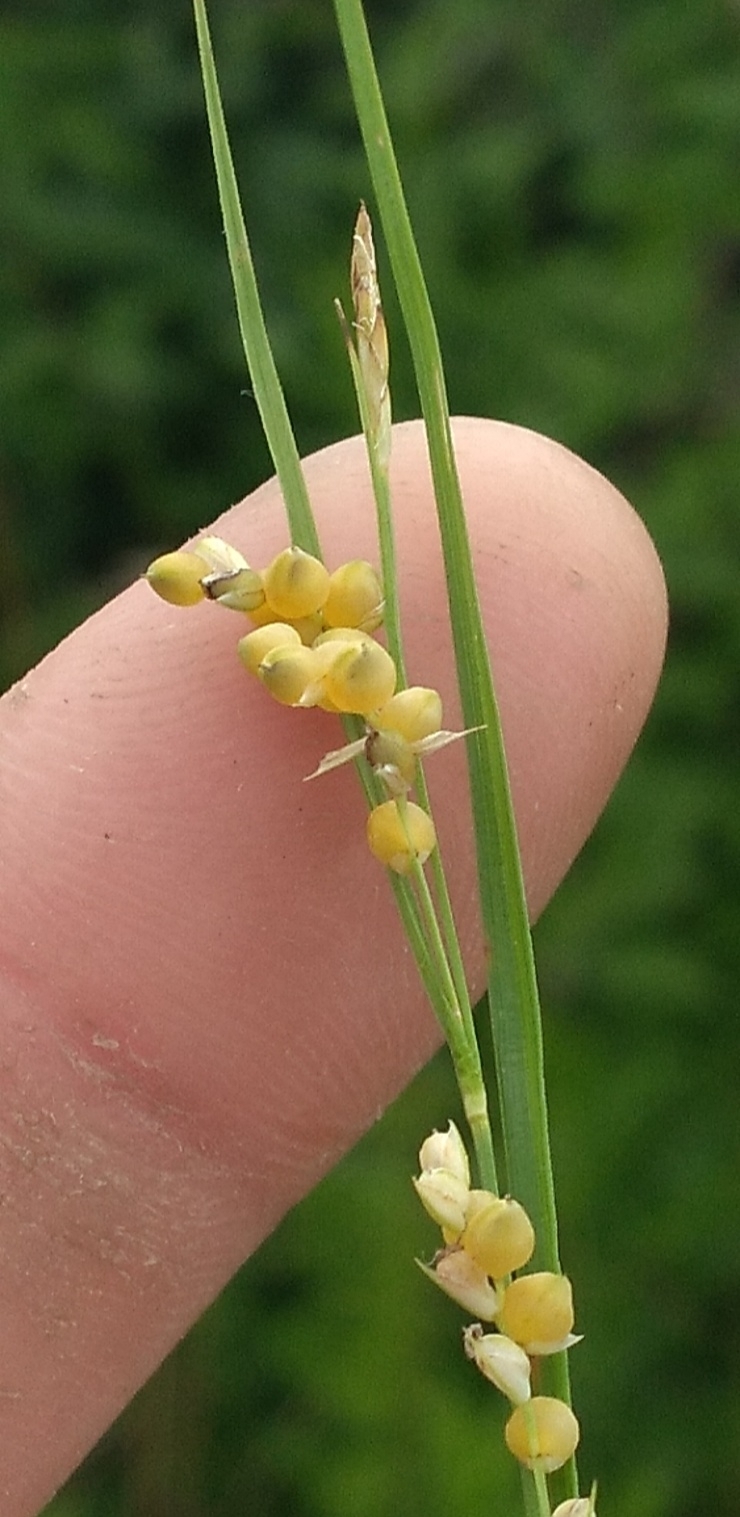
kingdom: Plantae
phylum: Tracheophyta
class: Liliopsida
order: Poales
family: Cyperaceae
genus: Carex
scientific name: Carex aurea
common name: Golden sedge
